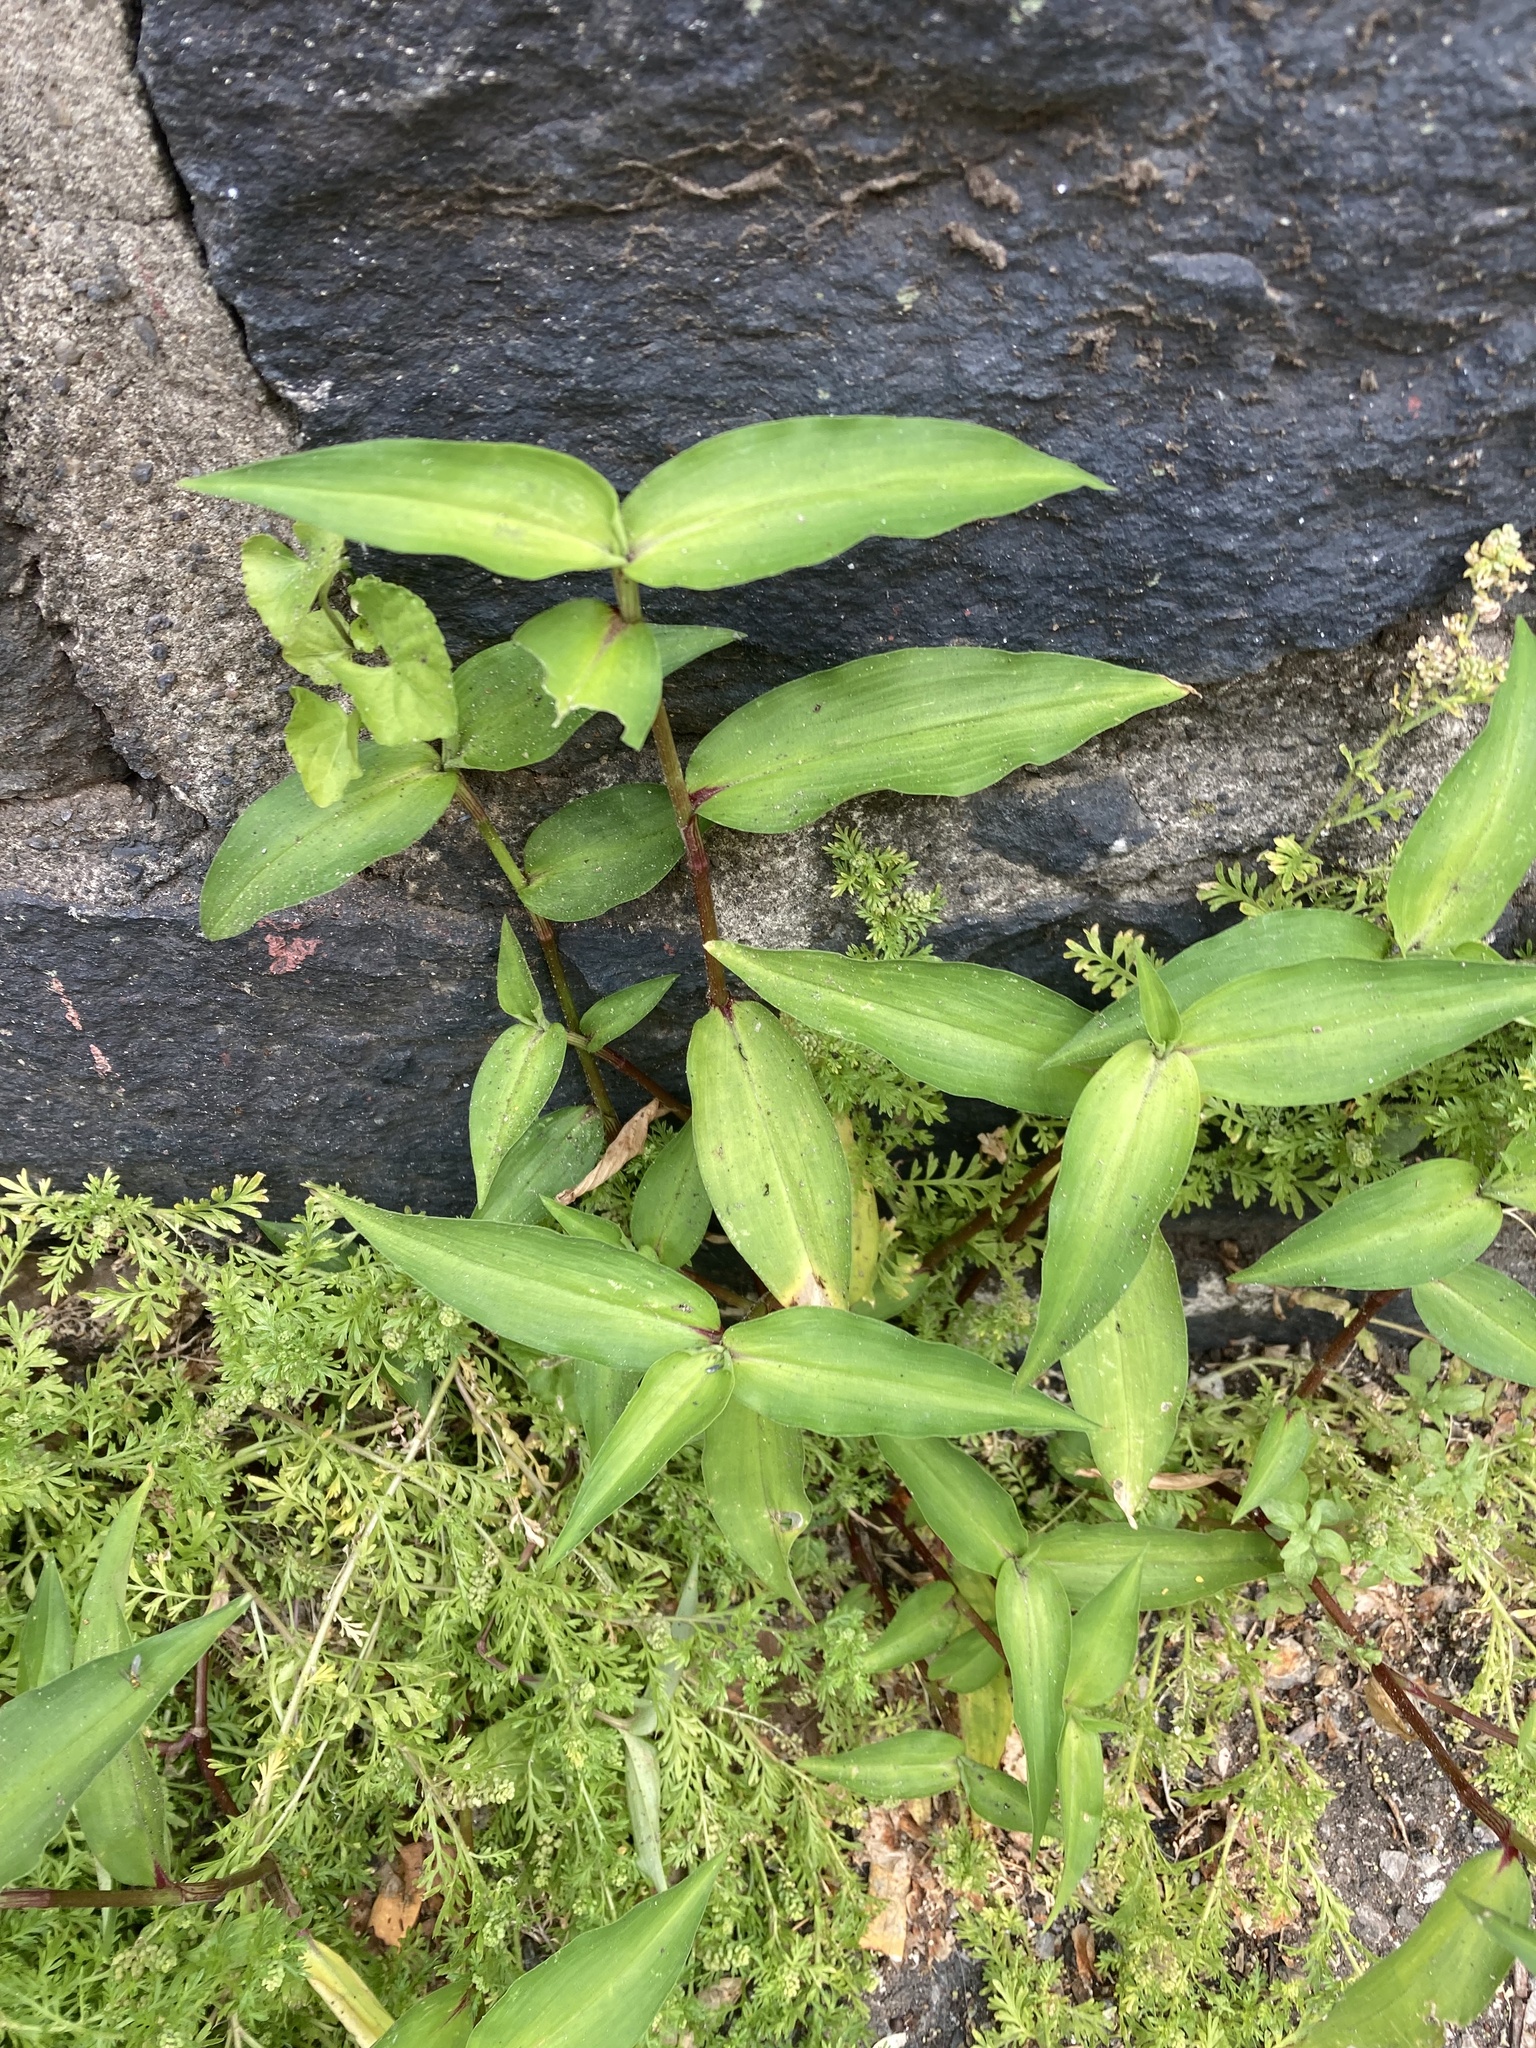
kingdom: Plantae
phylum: Tracheophyta
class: Liliopsida
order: Commelinales
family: Commelinaceae
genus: Commelina
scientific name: Commelina communis
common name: Asiatic dayflower
